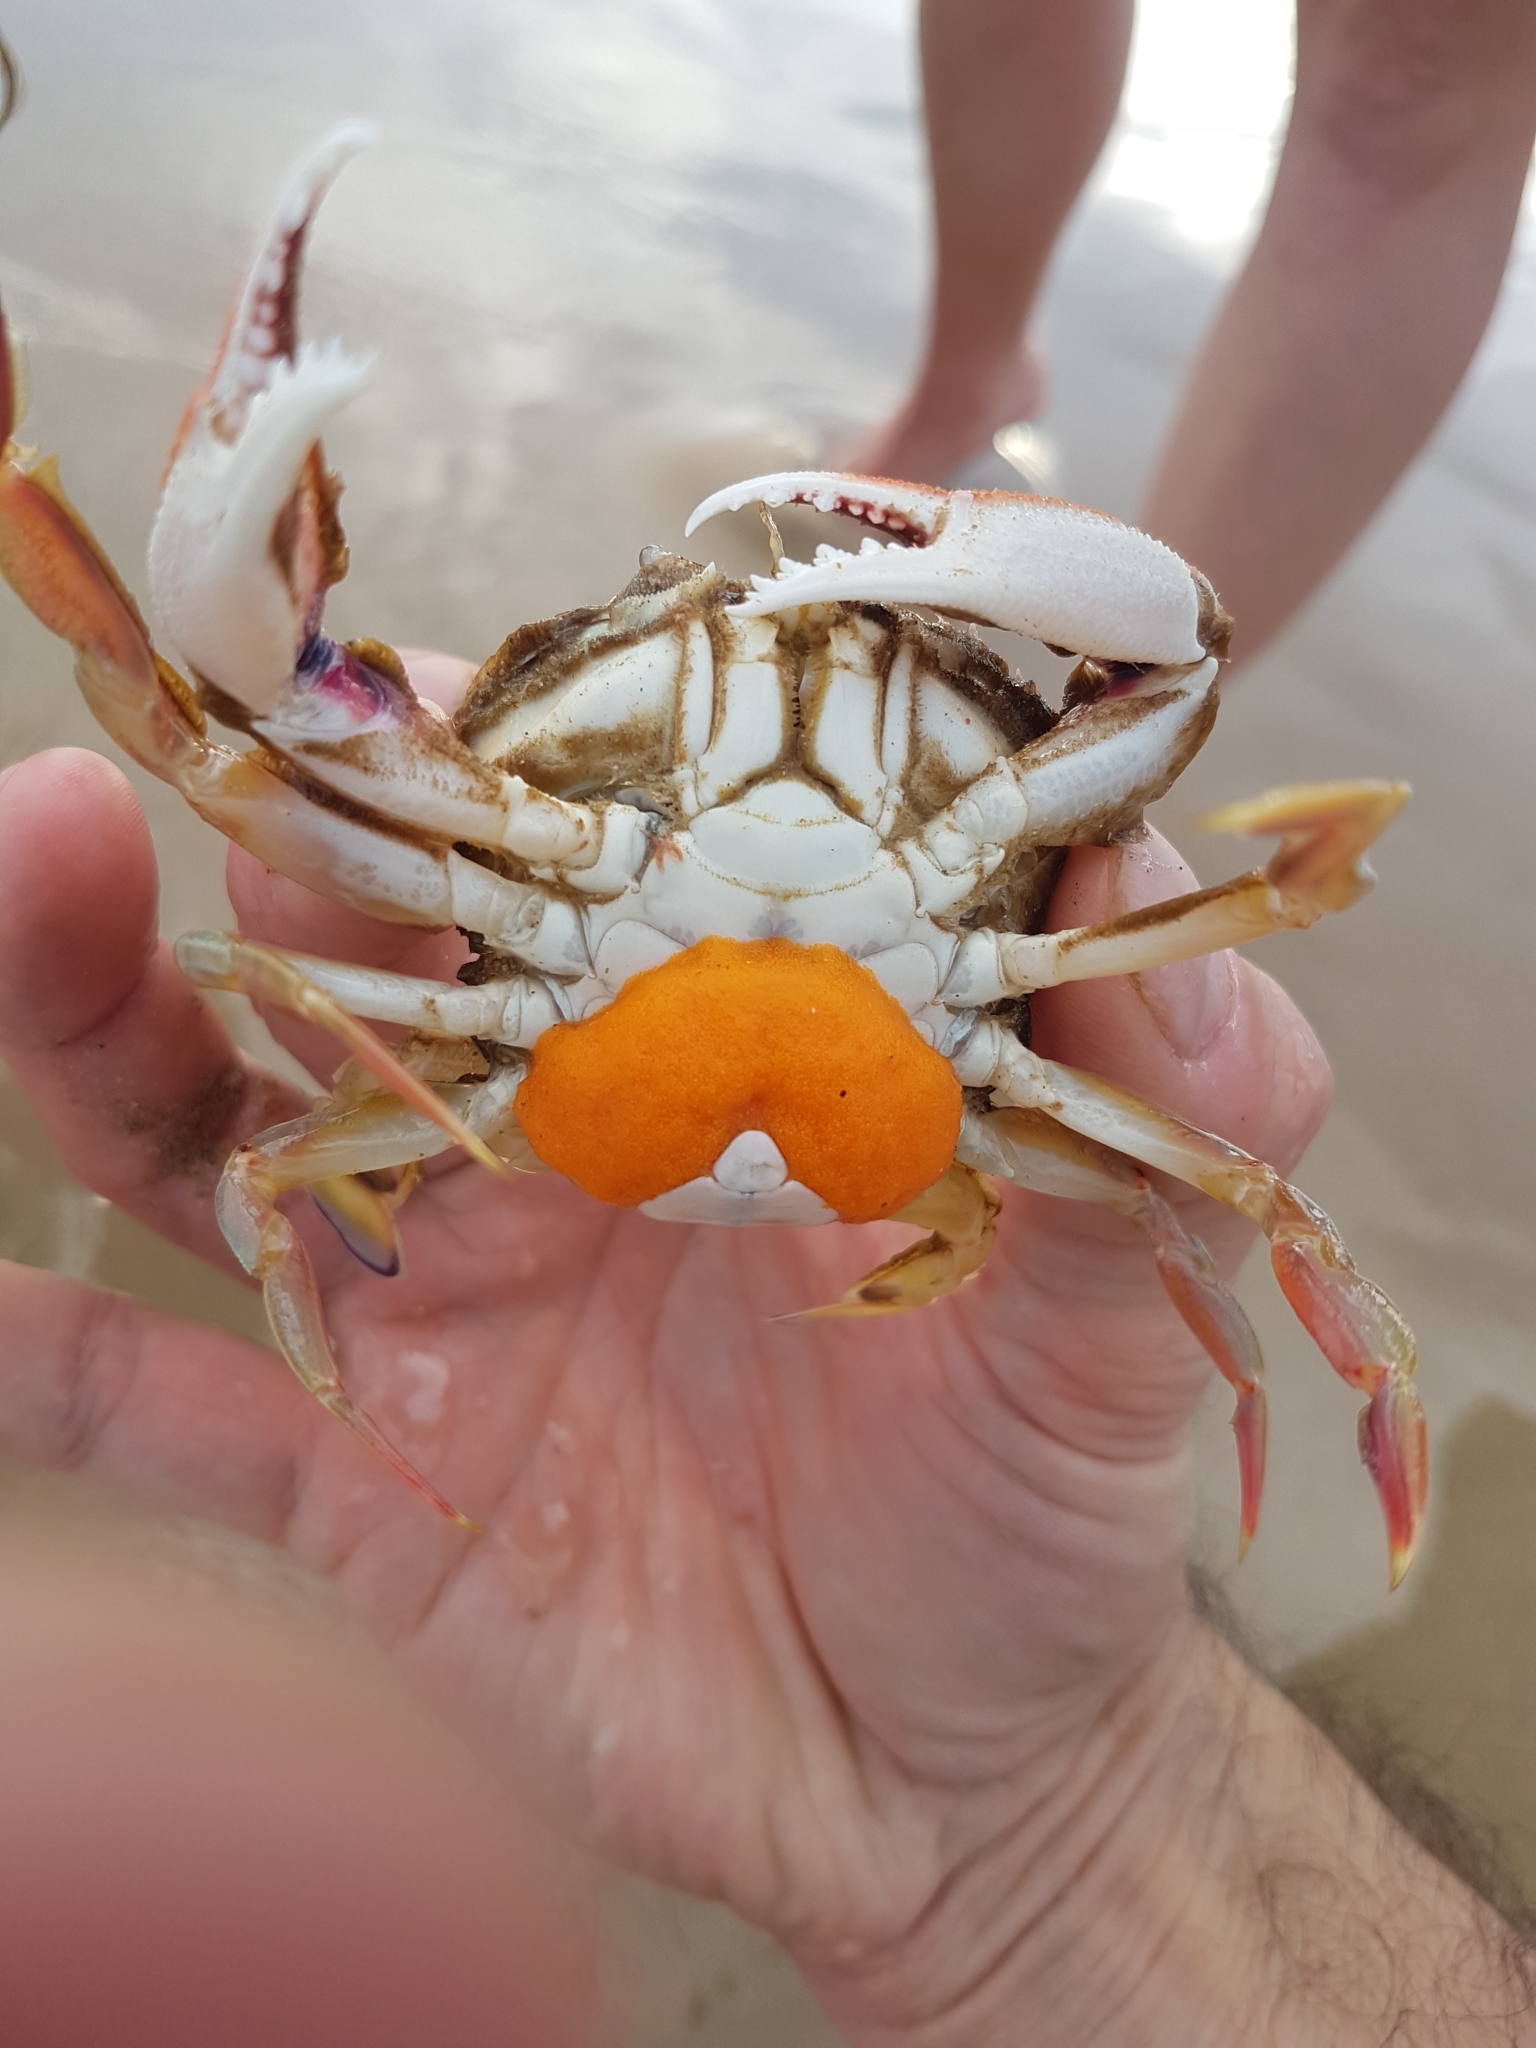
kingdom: Animalia
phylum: Arthropoda
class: Malacostraca
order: Decapoda
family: Ovalipidae
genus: Ovalipes
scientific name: Ovalipes australiensis
